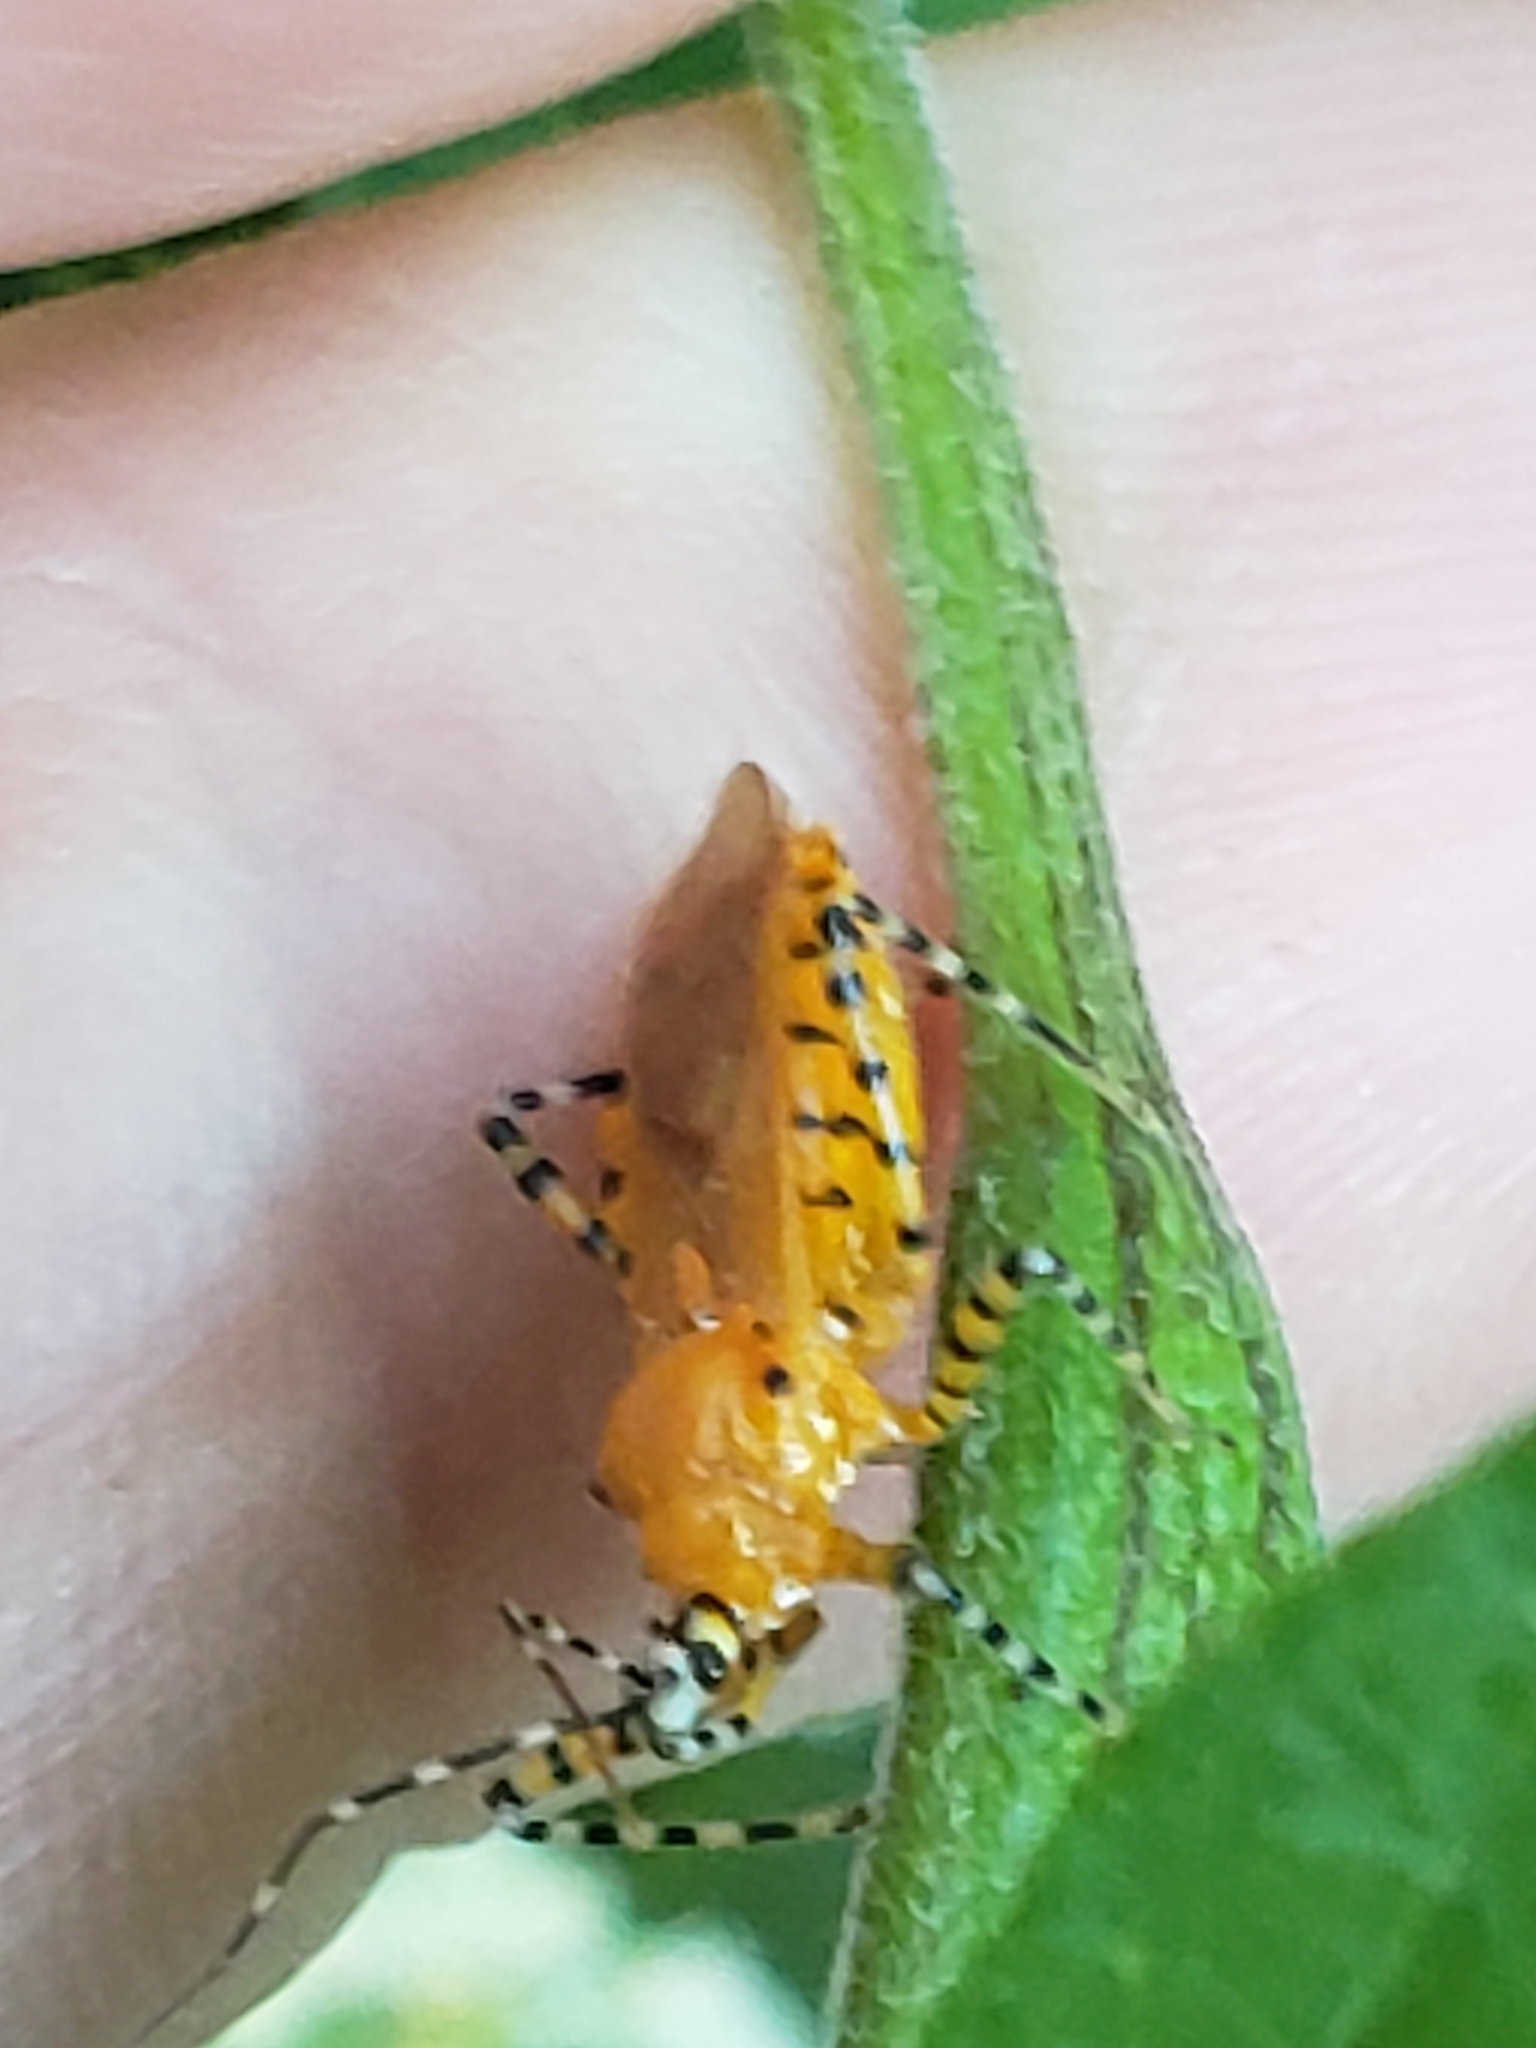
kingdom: Animalia
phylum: Arthropoda
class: Insecta
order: Hemiptera
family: Reduviidae
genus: Pselliopus
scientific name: Pselliopus barberi
